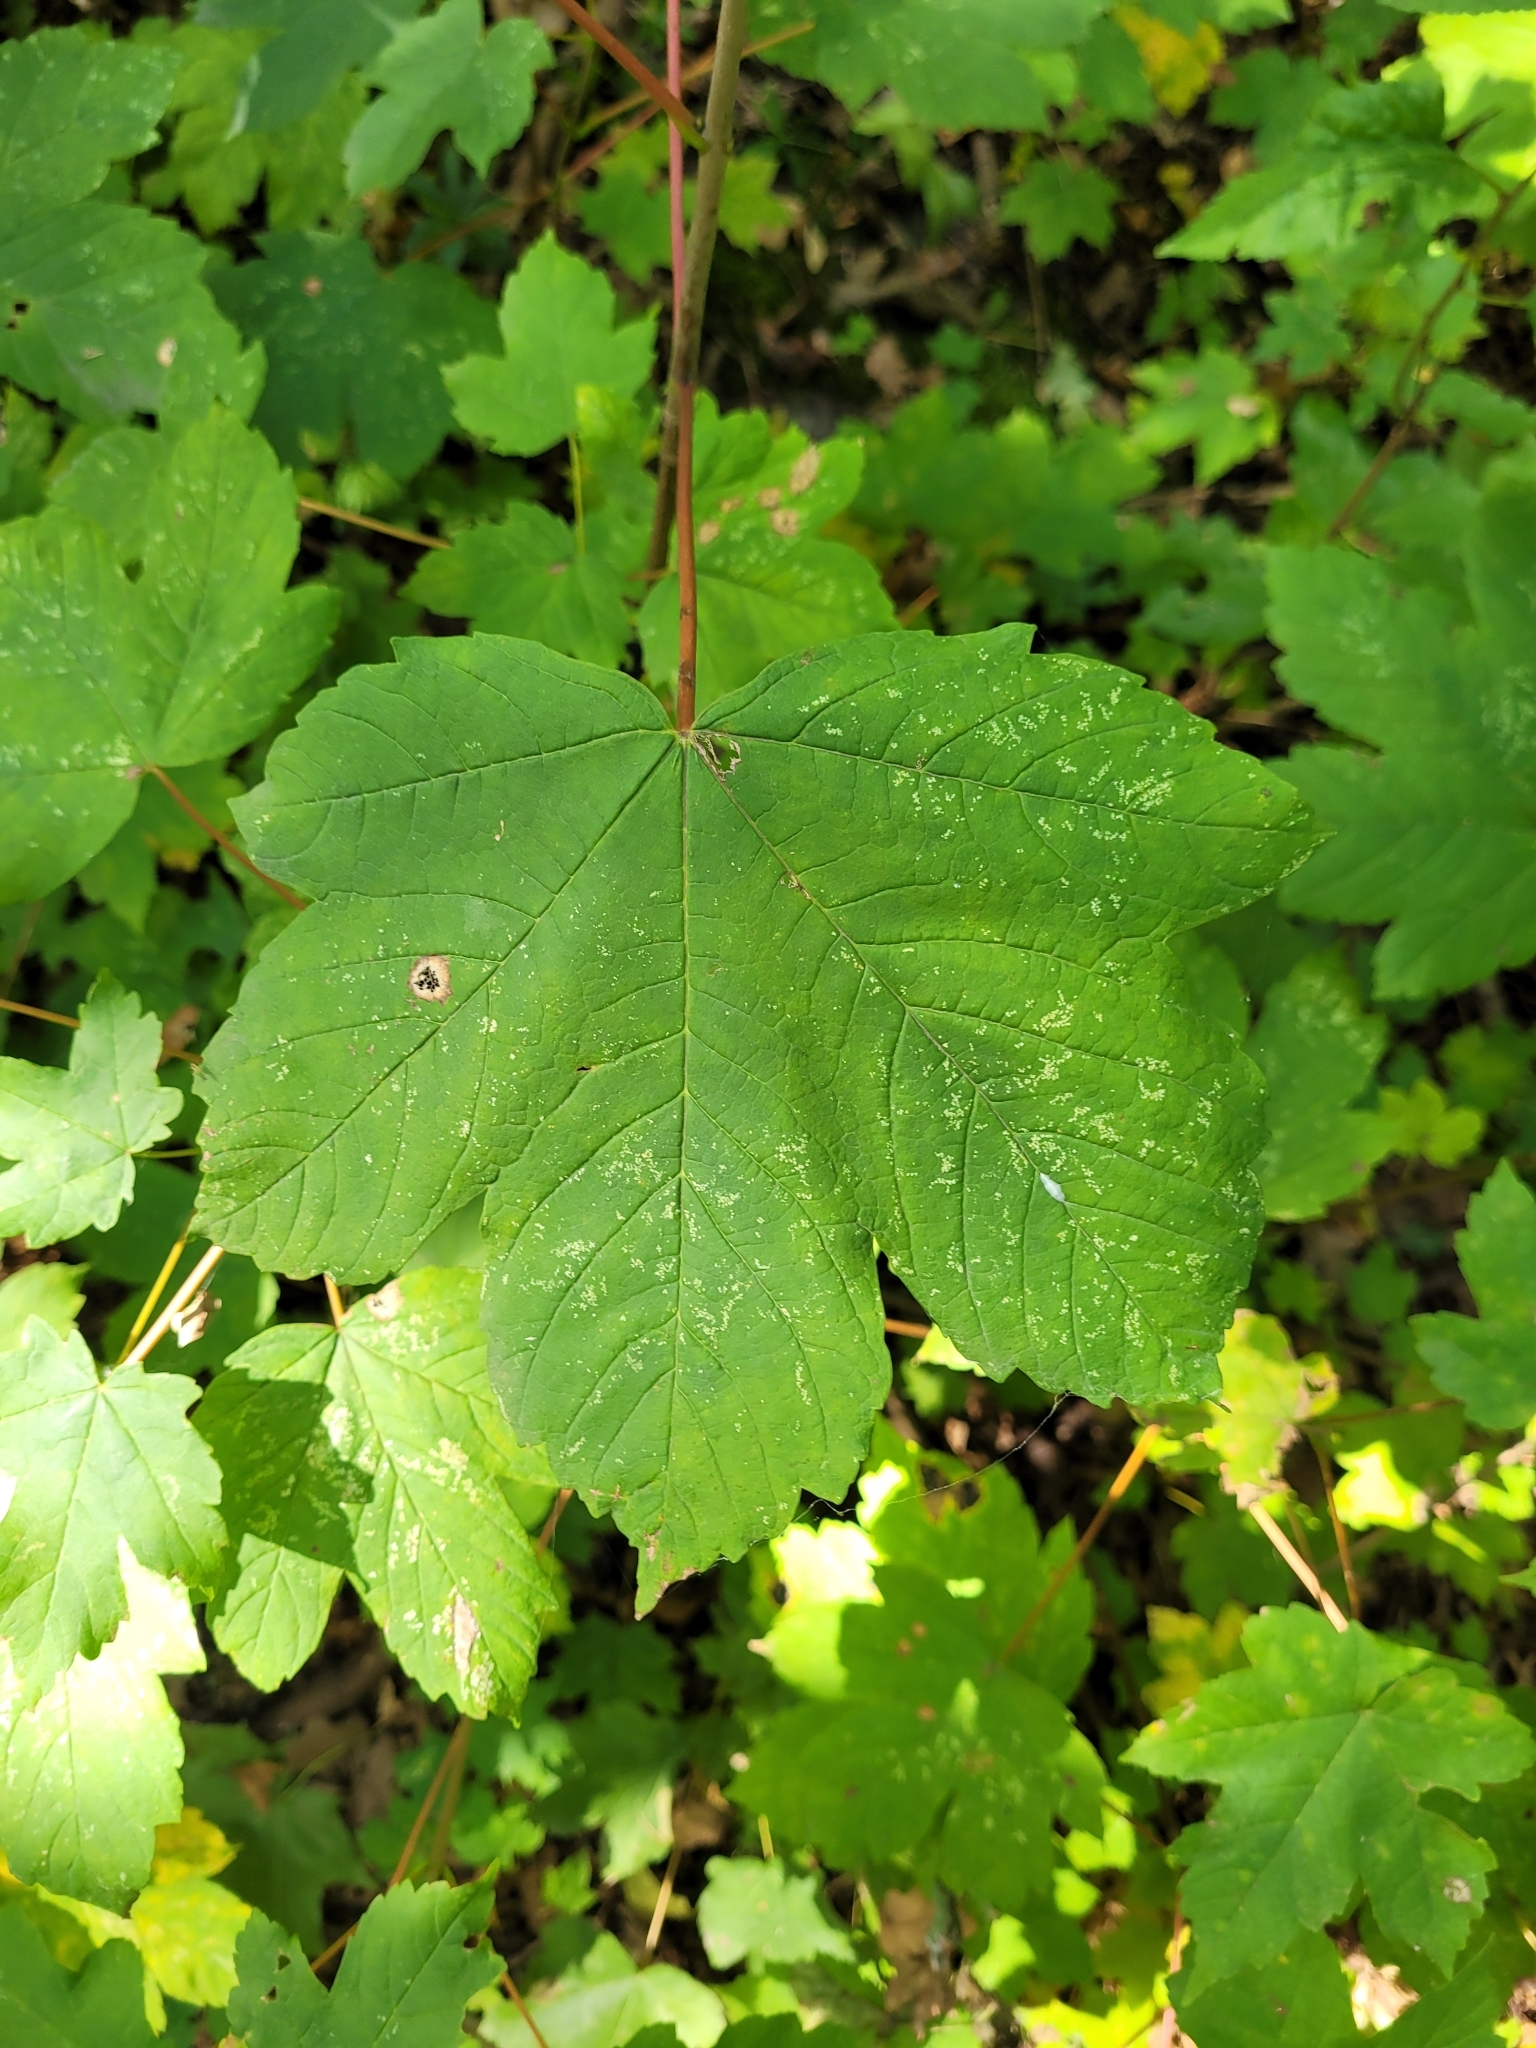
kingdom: Plantae
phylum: Tracheophyta
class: Magnoliopsida
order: Sapindales
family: Sapindaceae
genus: Acer
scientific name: Acer pseudoplatanus
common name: Sycamore
